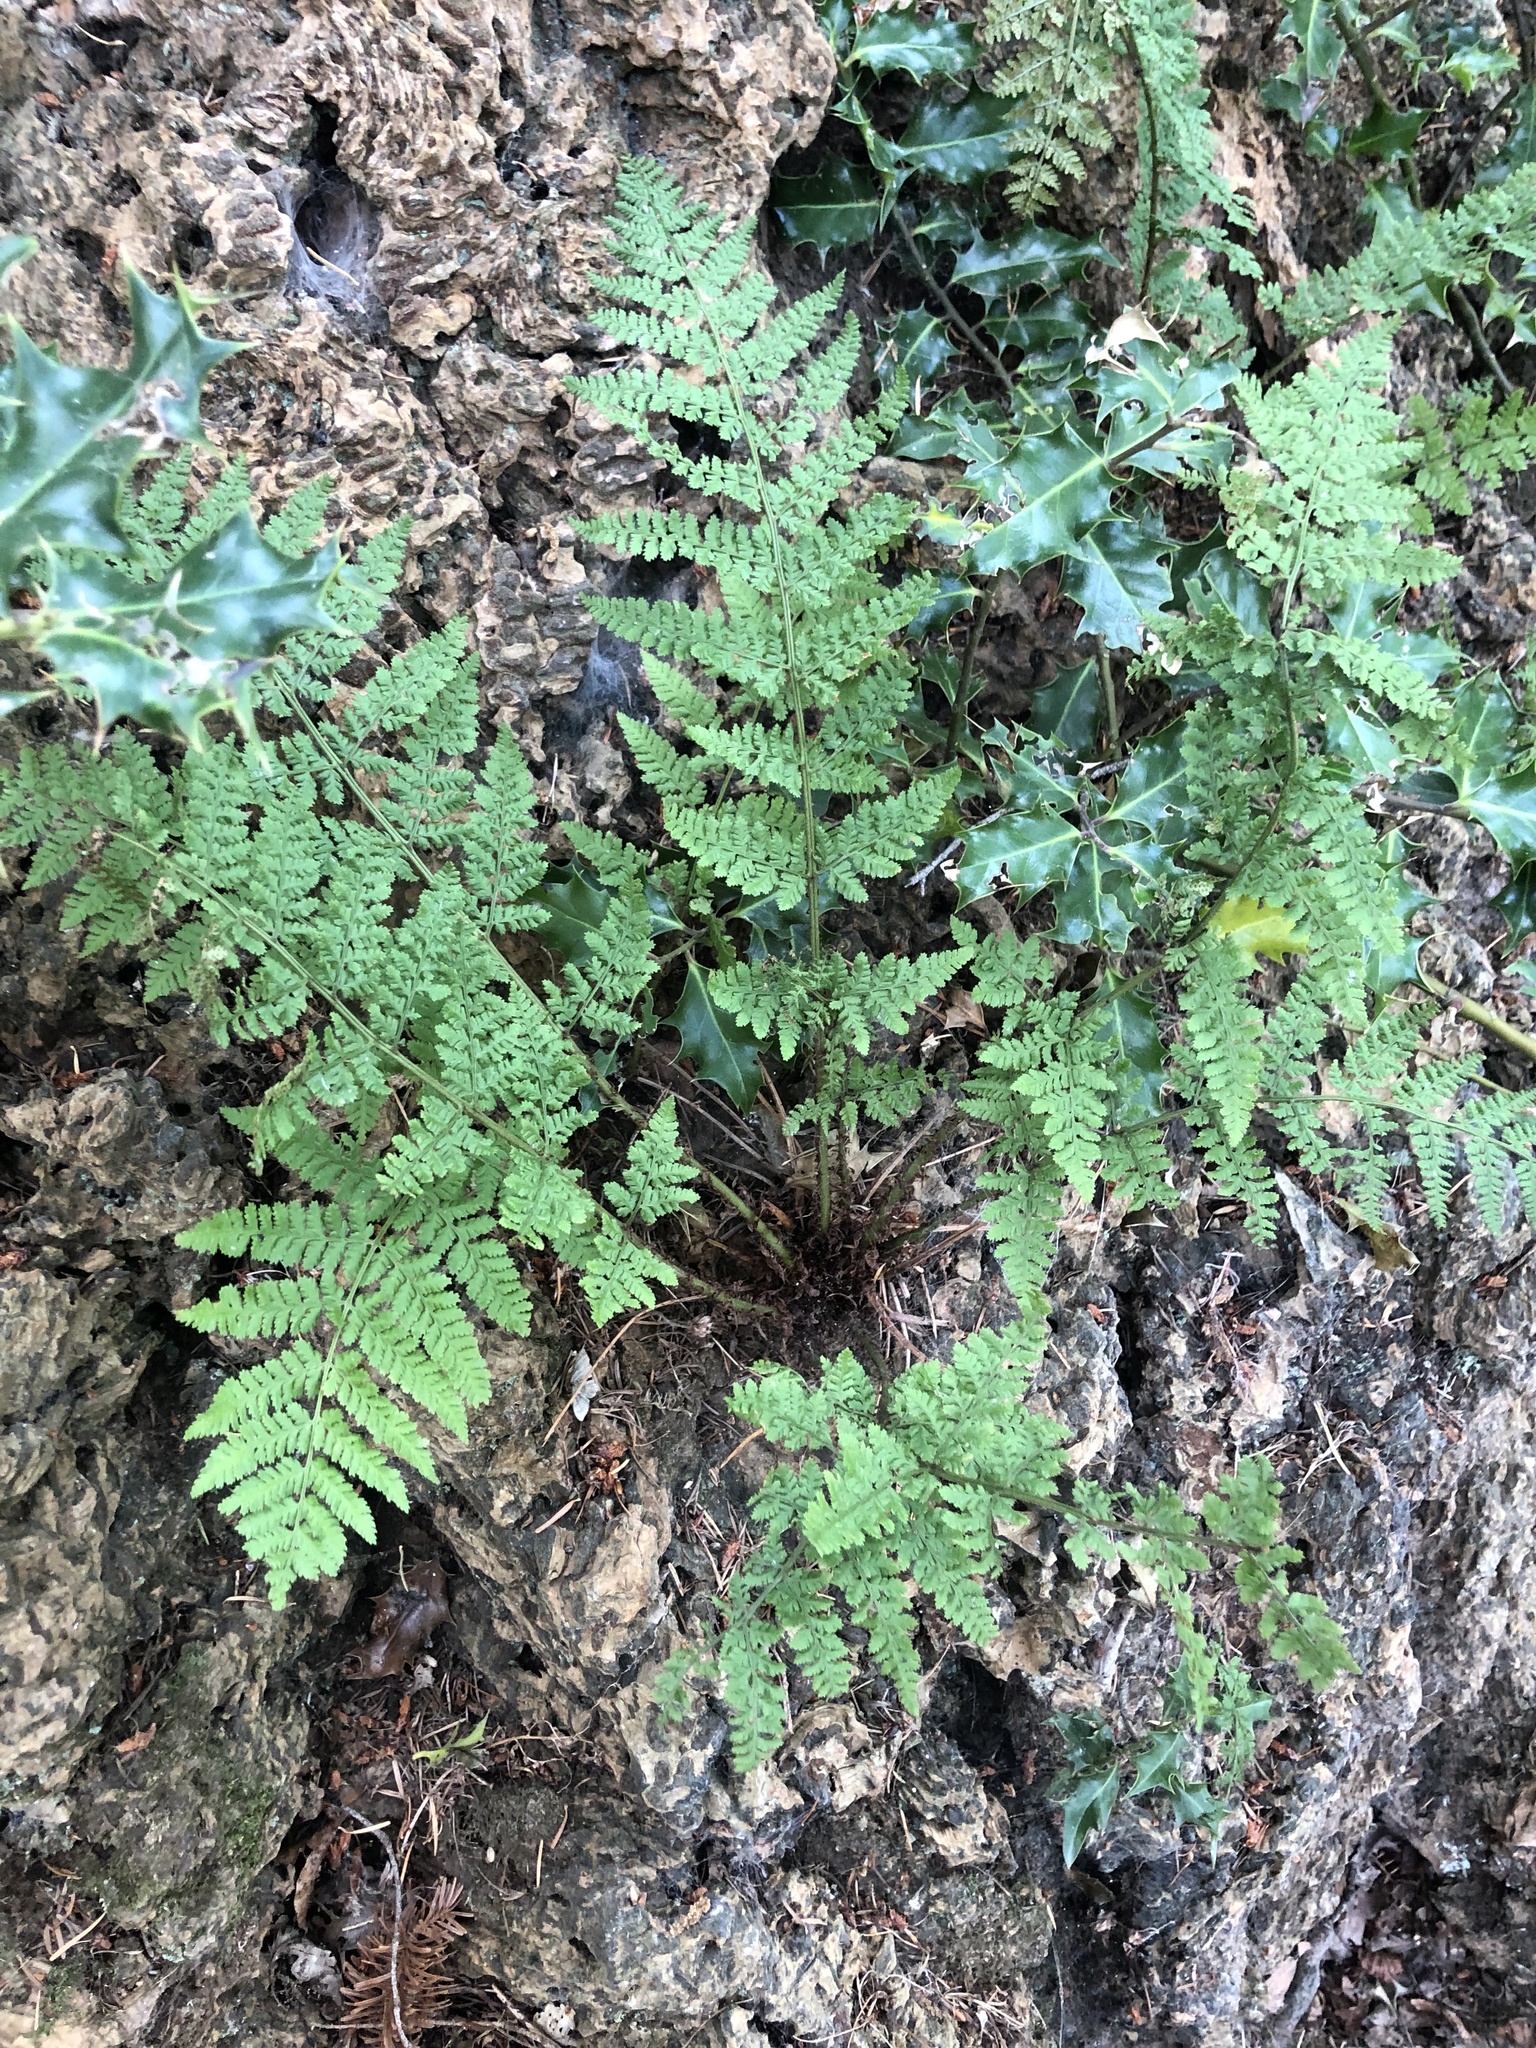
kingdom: Plantae
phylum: Tracheophyta
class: Polypodiopsida
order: Polypodiales
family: Dryopteridaceae
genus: Dryopteris
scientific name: Dryopteris dilatata
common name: Broad buckler-fern
